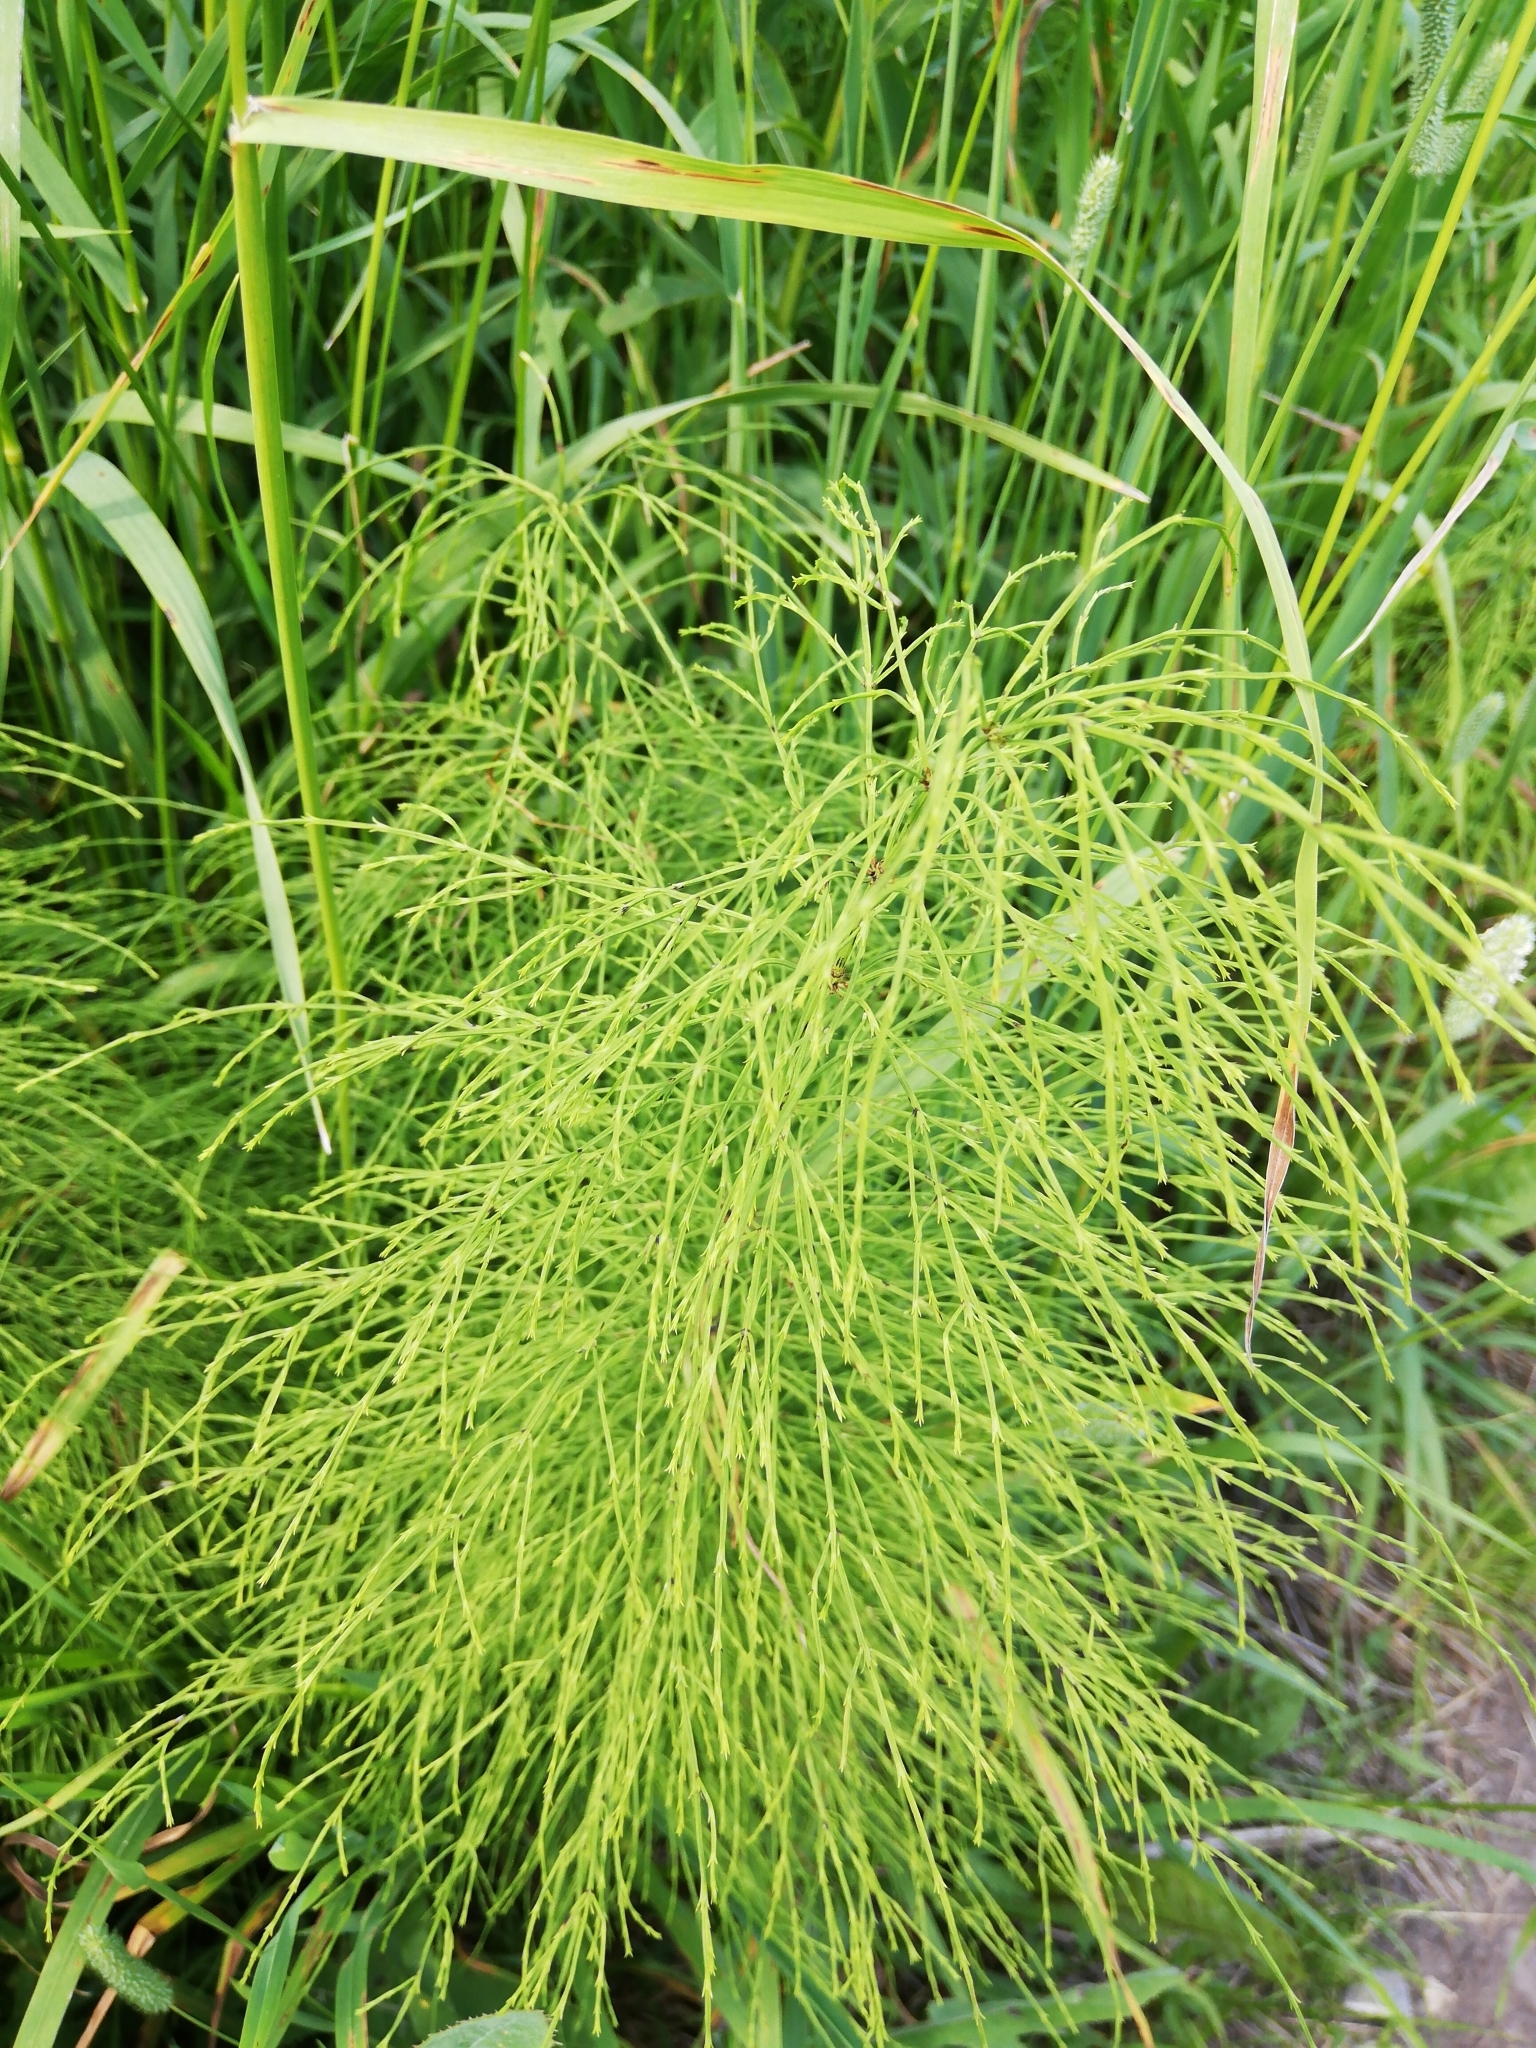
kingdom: Plantae
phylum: Tracheophyta
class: Polypodiopsida
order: Equisetales
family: Equisetaceae
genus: Equisetum
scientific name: Equisetum sylvaticum
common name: Wood horsetail
